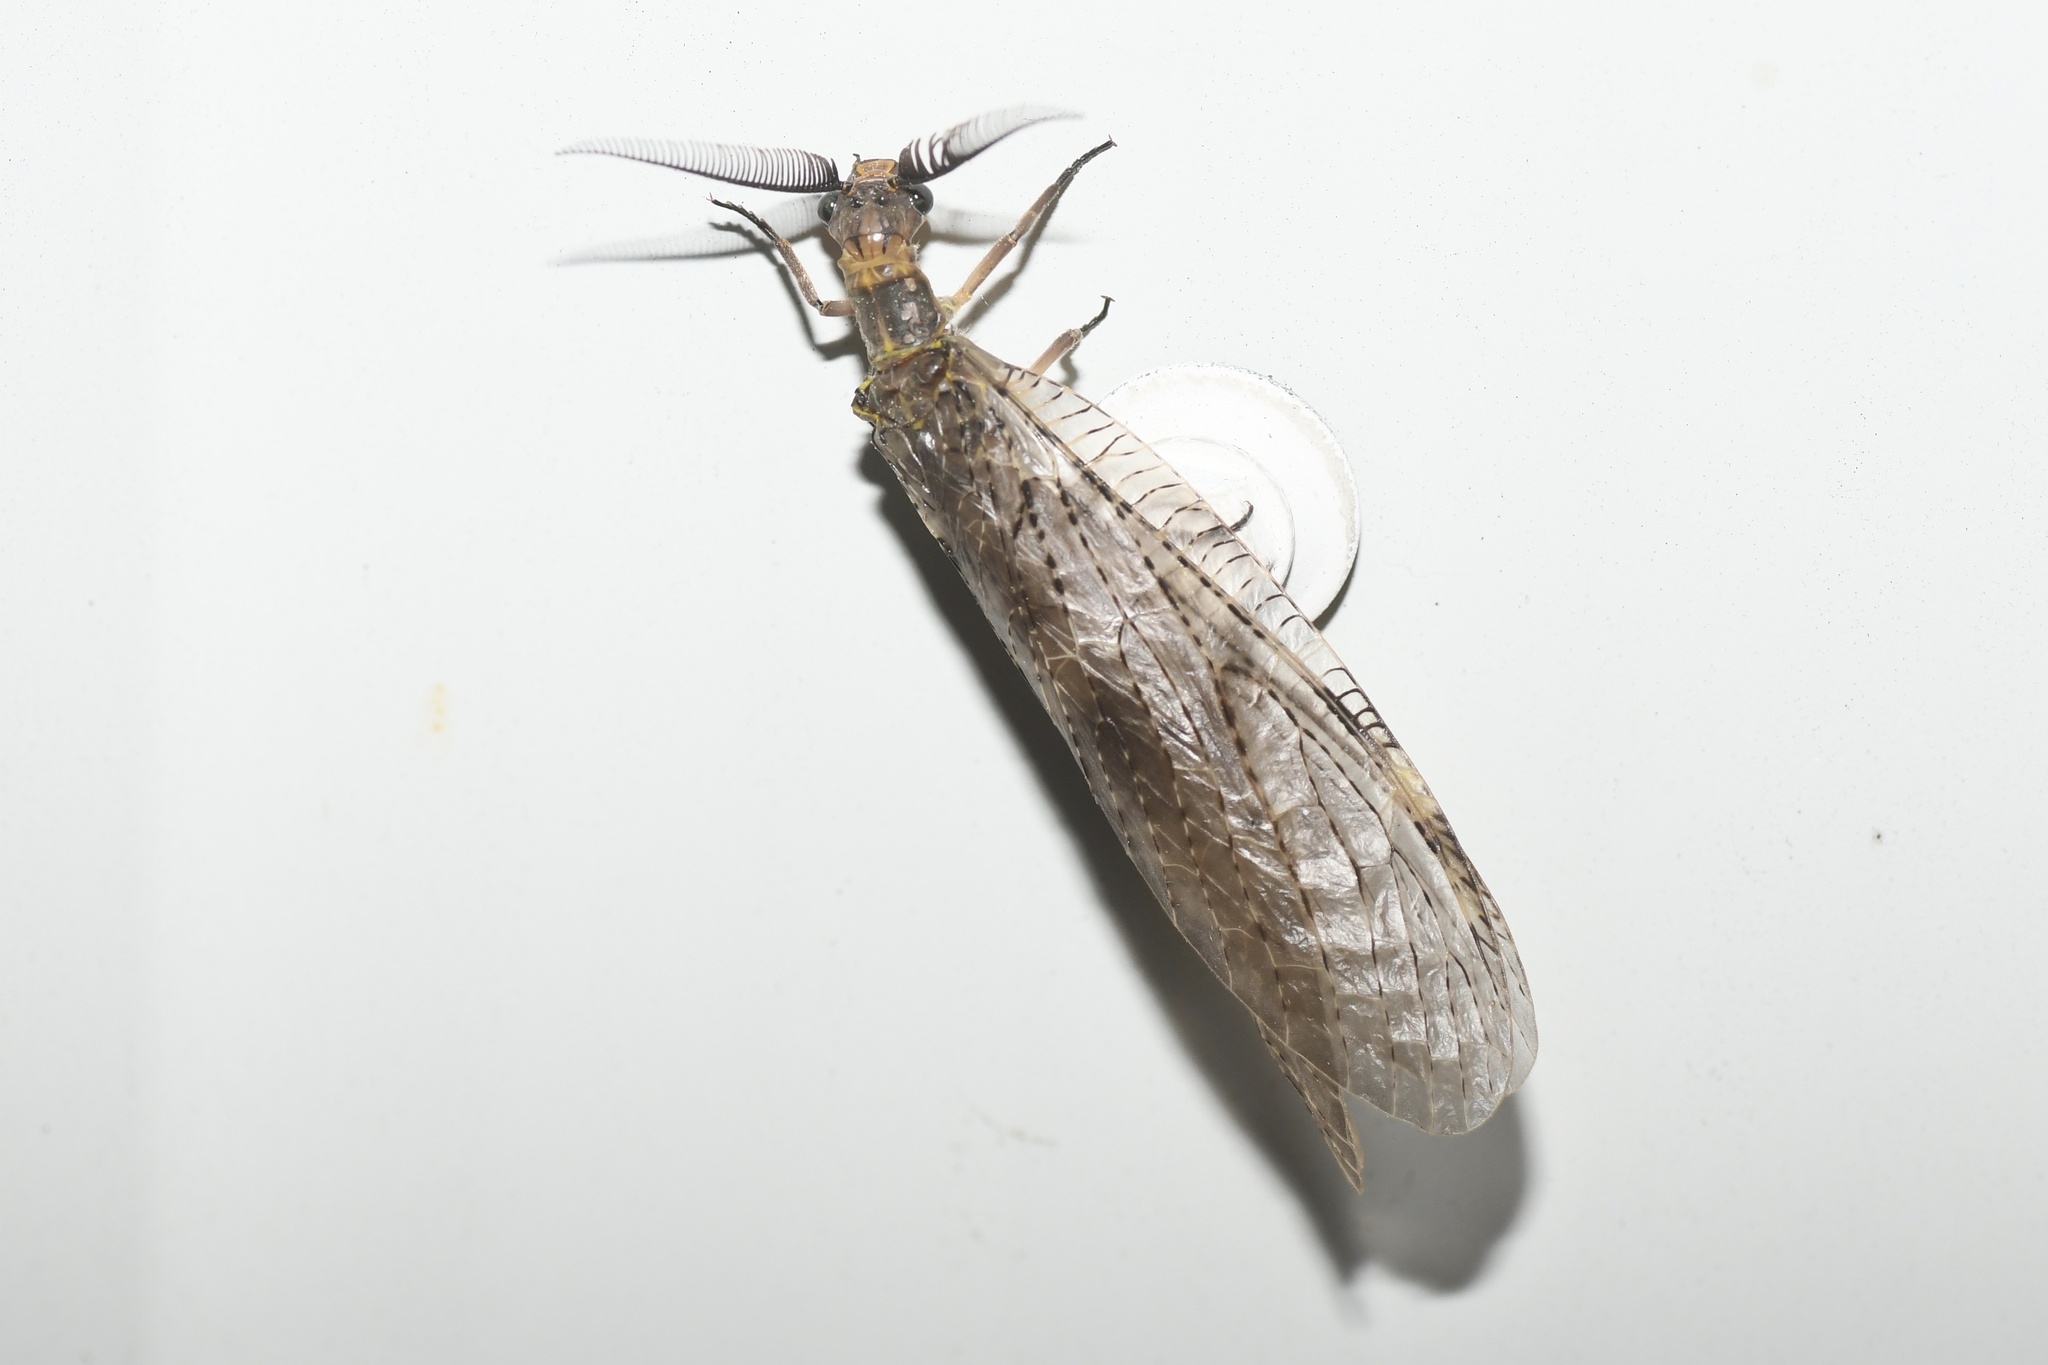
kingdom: Animalia
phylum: Arthropoda
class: Insecta
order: Megaloptera
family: Corydalidae
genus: Chauliodes
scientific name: Chauliodes pectinicornis
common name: Summer fishfly
